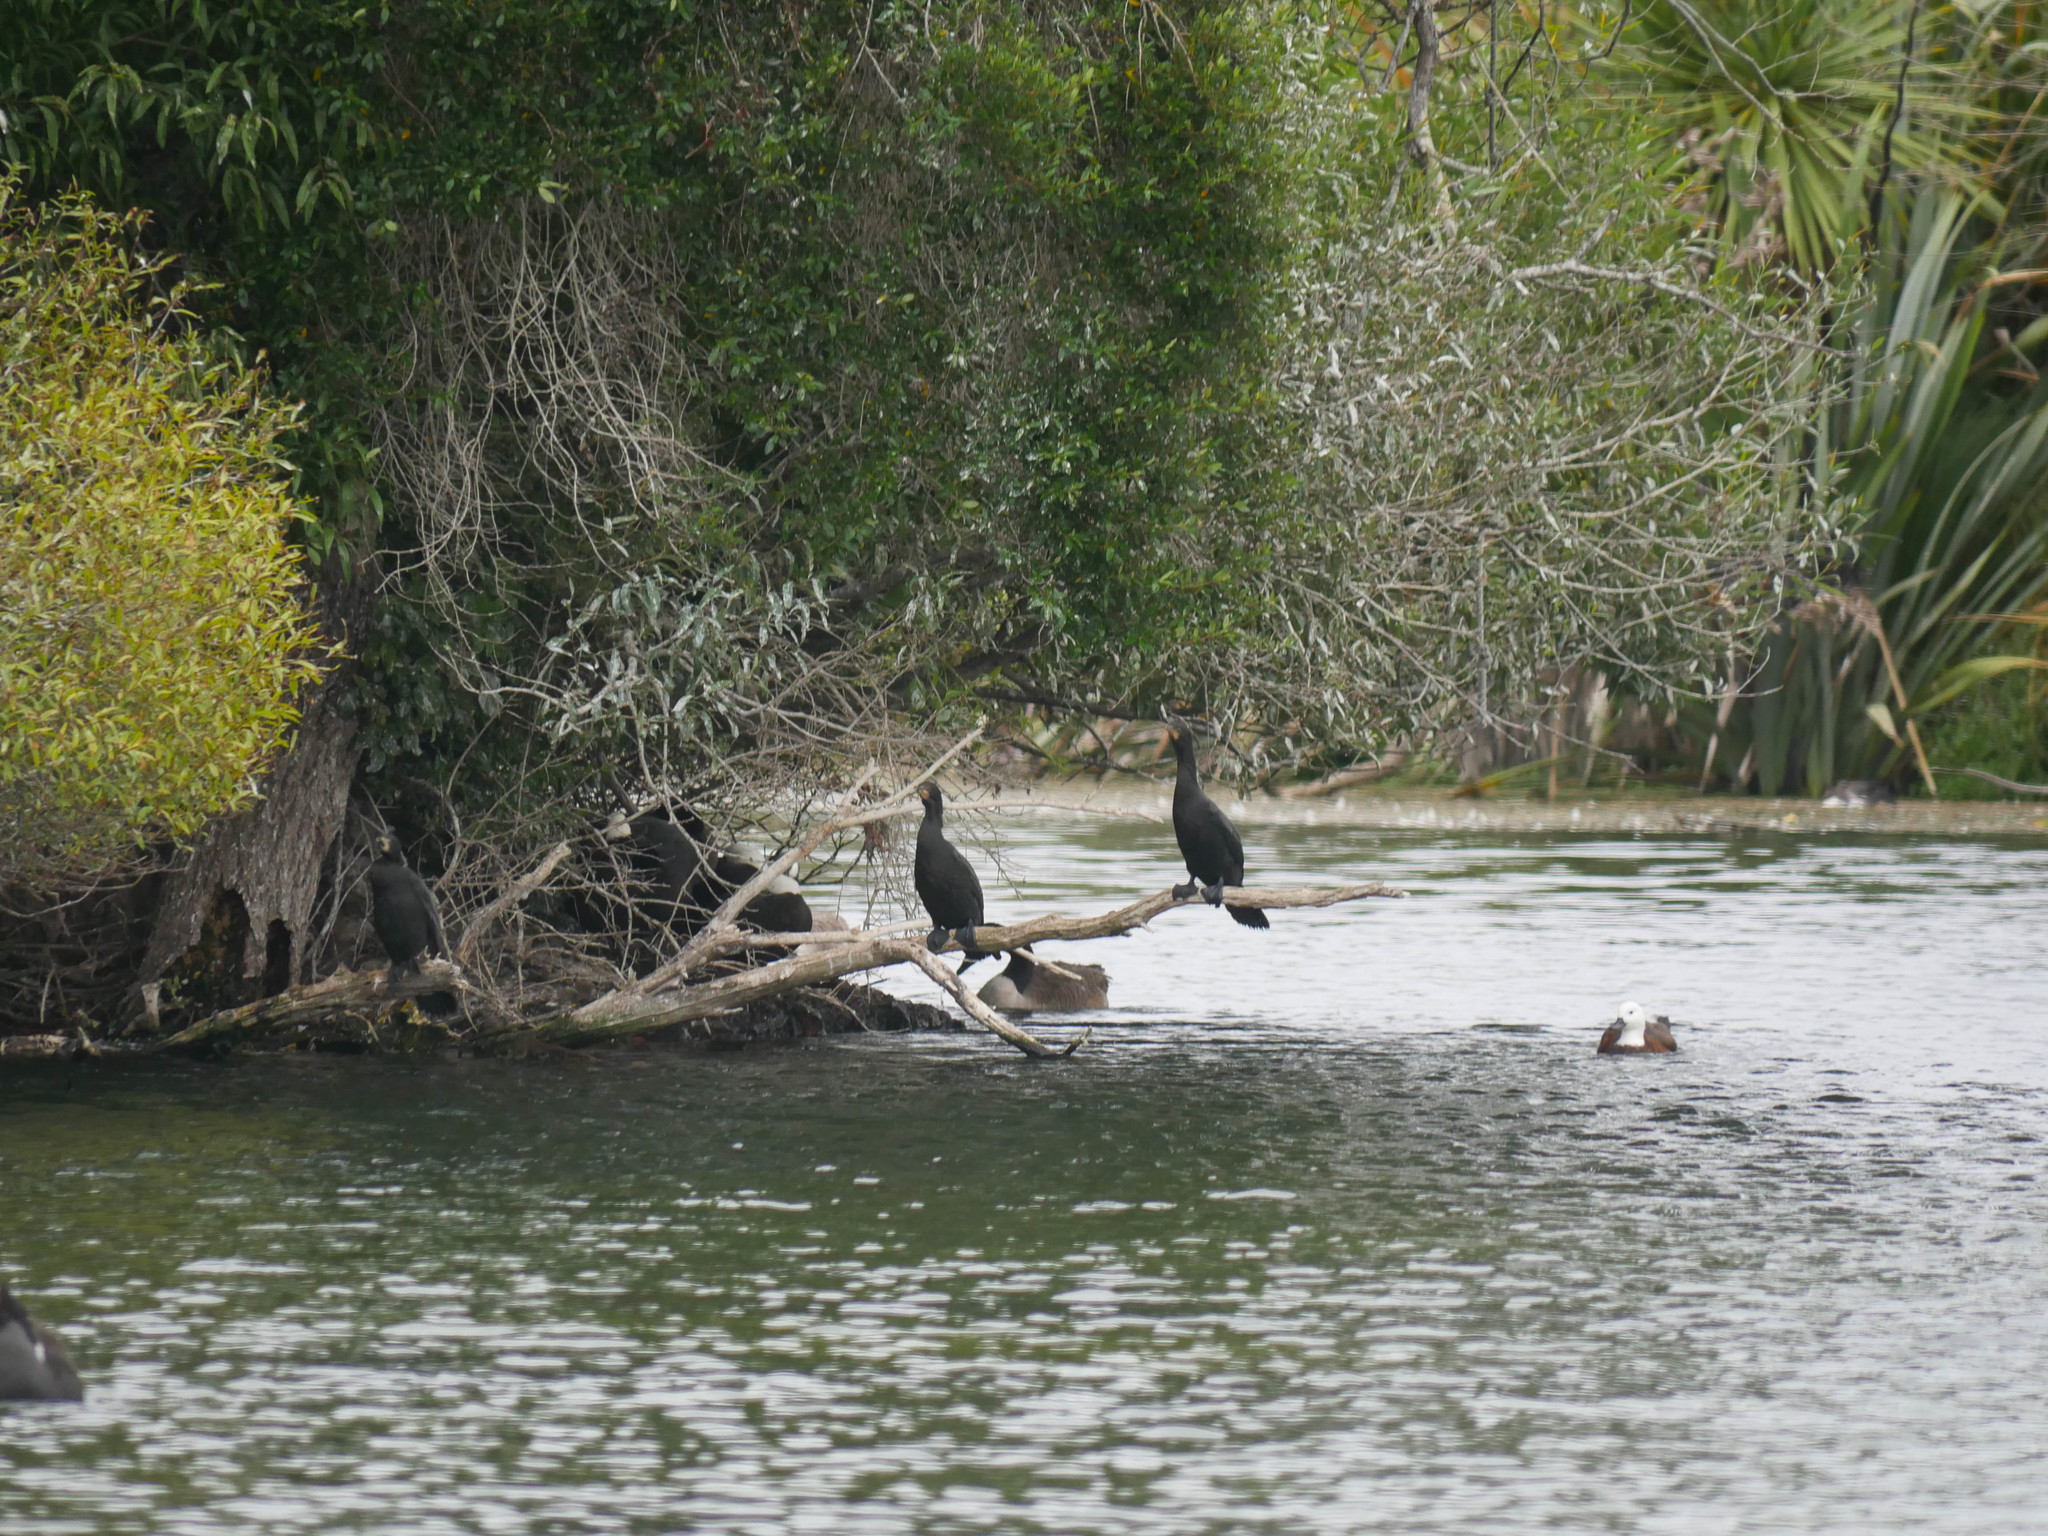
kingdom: Animalia
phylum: Chordata
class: Aves
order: Suliformes
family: Phalacrocoracidae
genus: Phalacrocorax
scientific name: Phalacrocorax carbo
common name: Great cormorant
